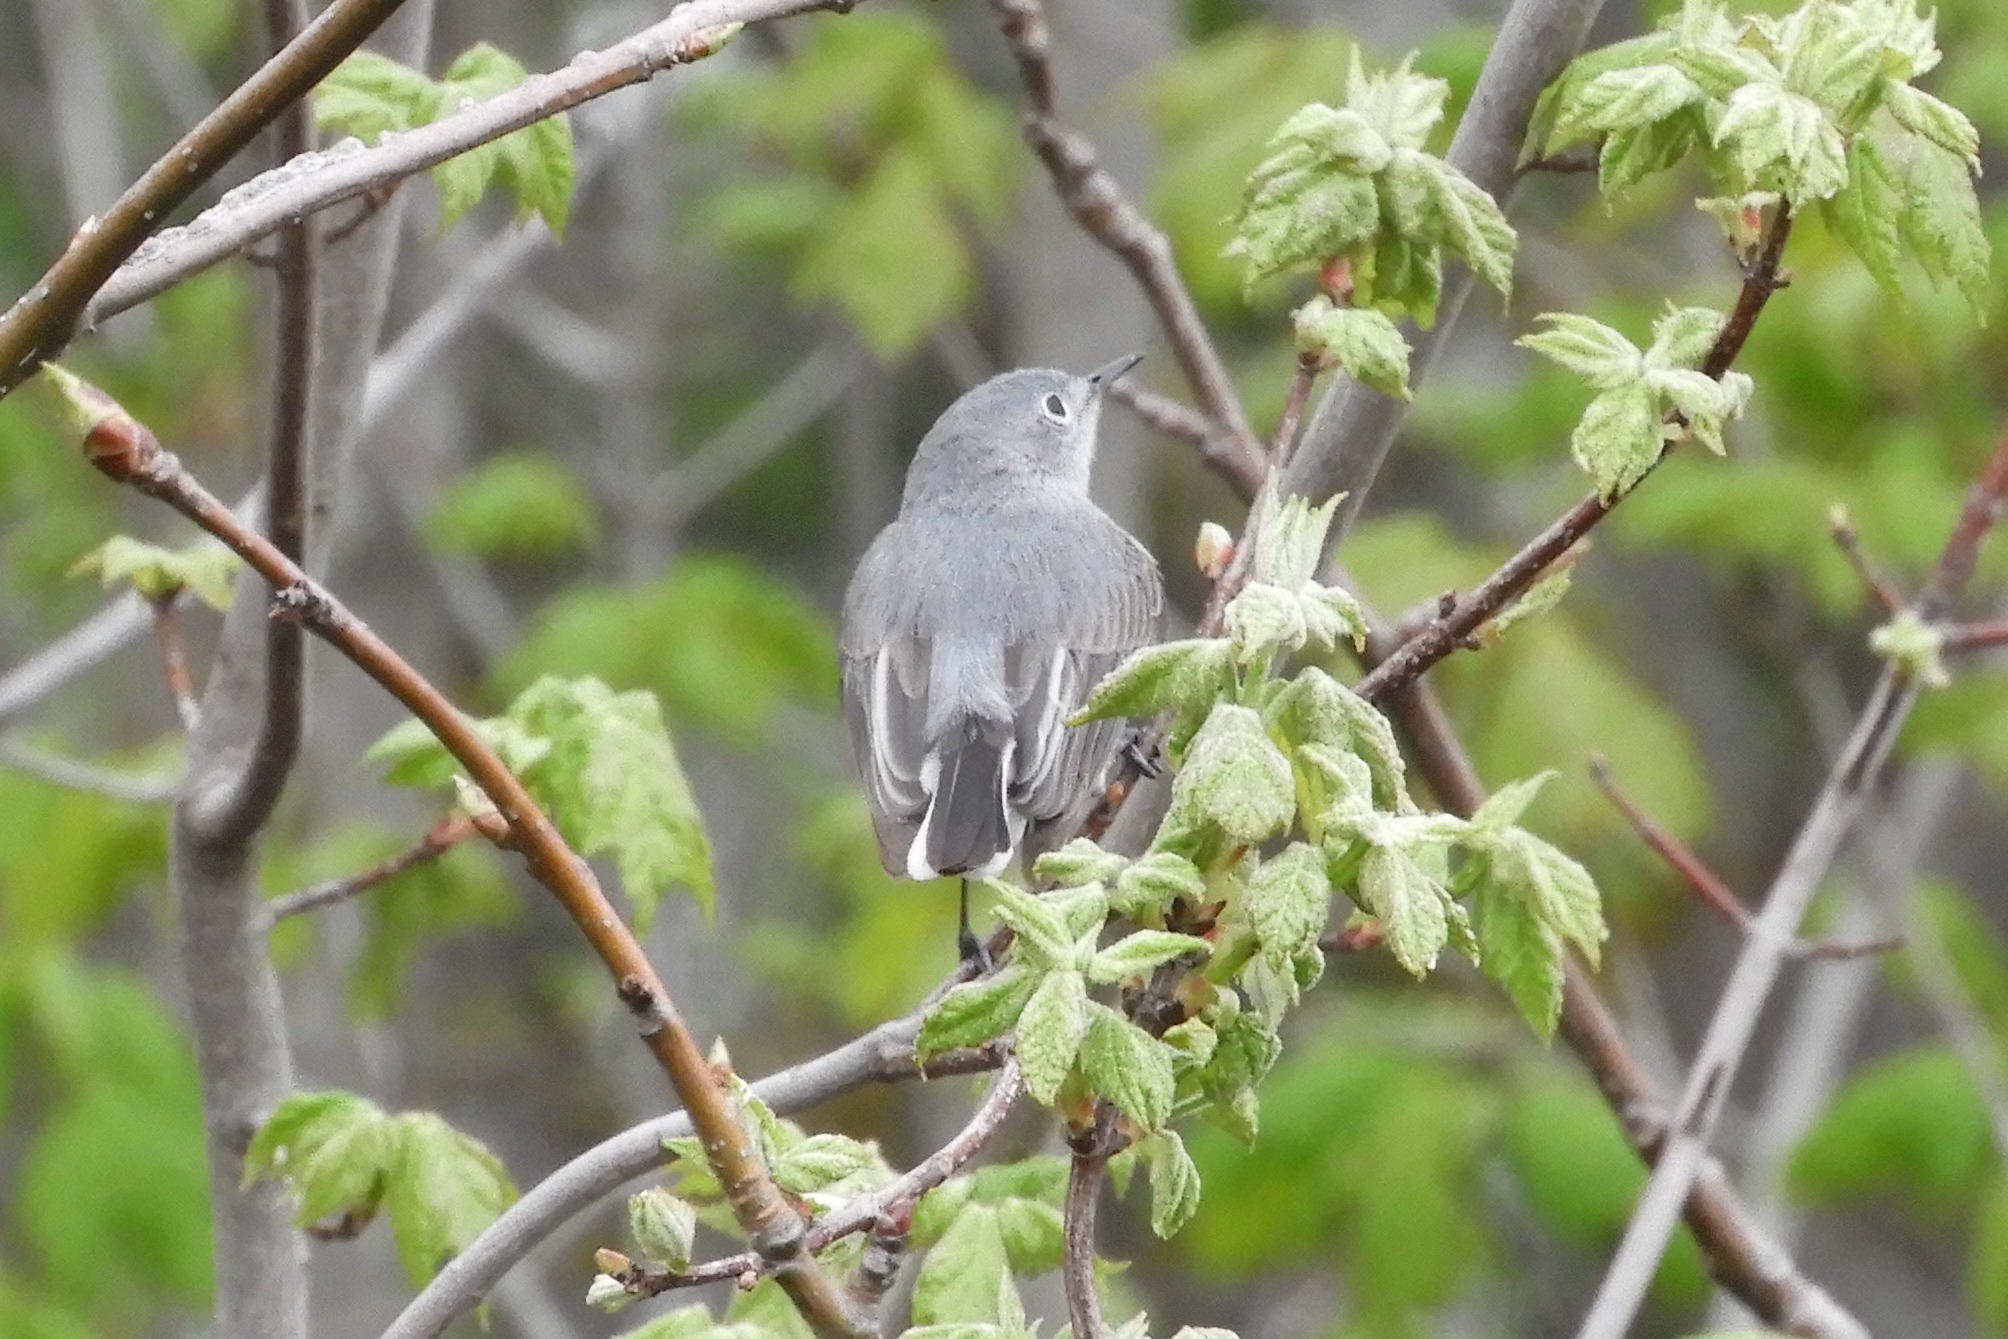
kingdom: Animalia
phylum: Chordata
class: Aves
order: Passeriformes
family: Polioptilidae
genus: Polioptila
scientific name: Polioptila caerulea
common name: Blue-gray gnatcatcher
